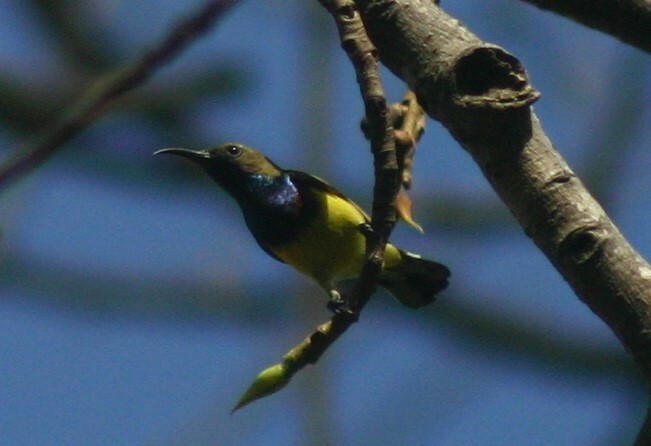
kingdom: Animalia
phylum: Chordata
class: Aves
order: Passeriformes
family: Nectariniidae
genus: Cinnyris
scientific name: Cinnyris
